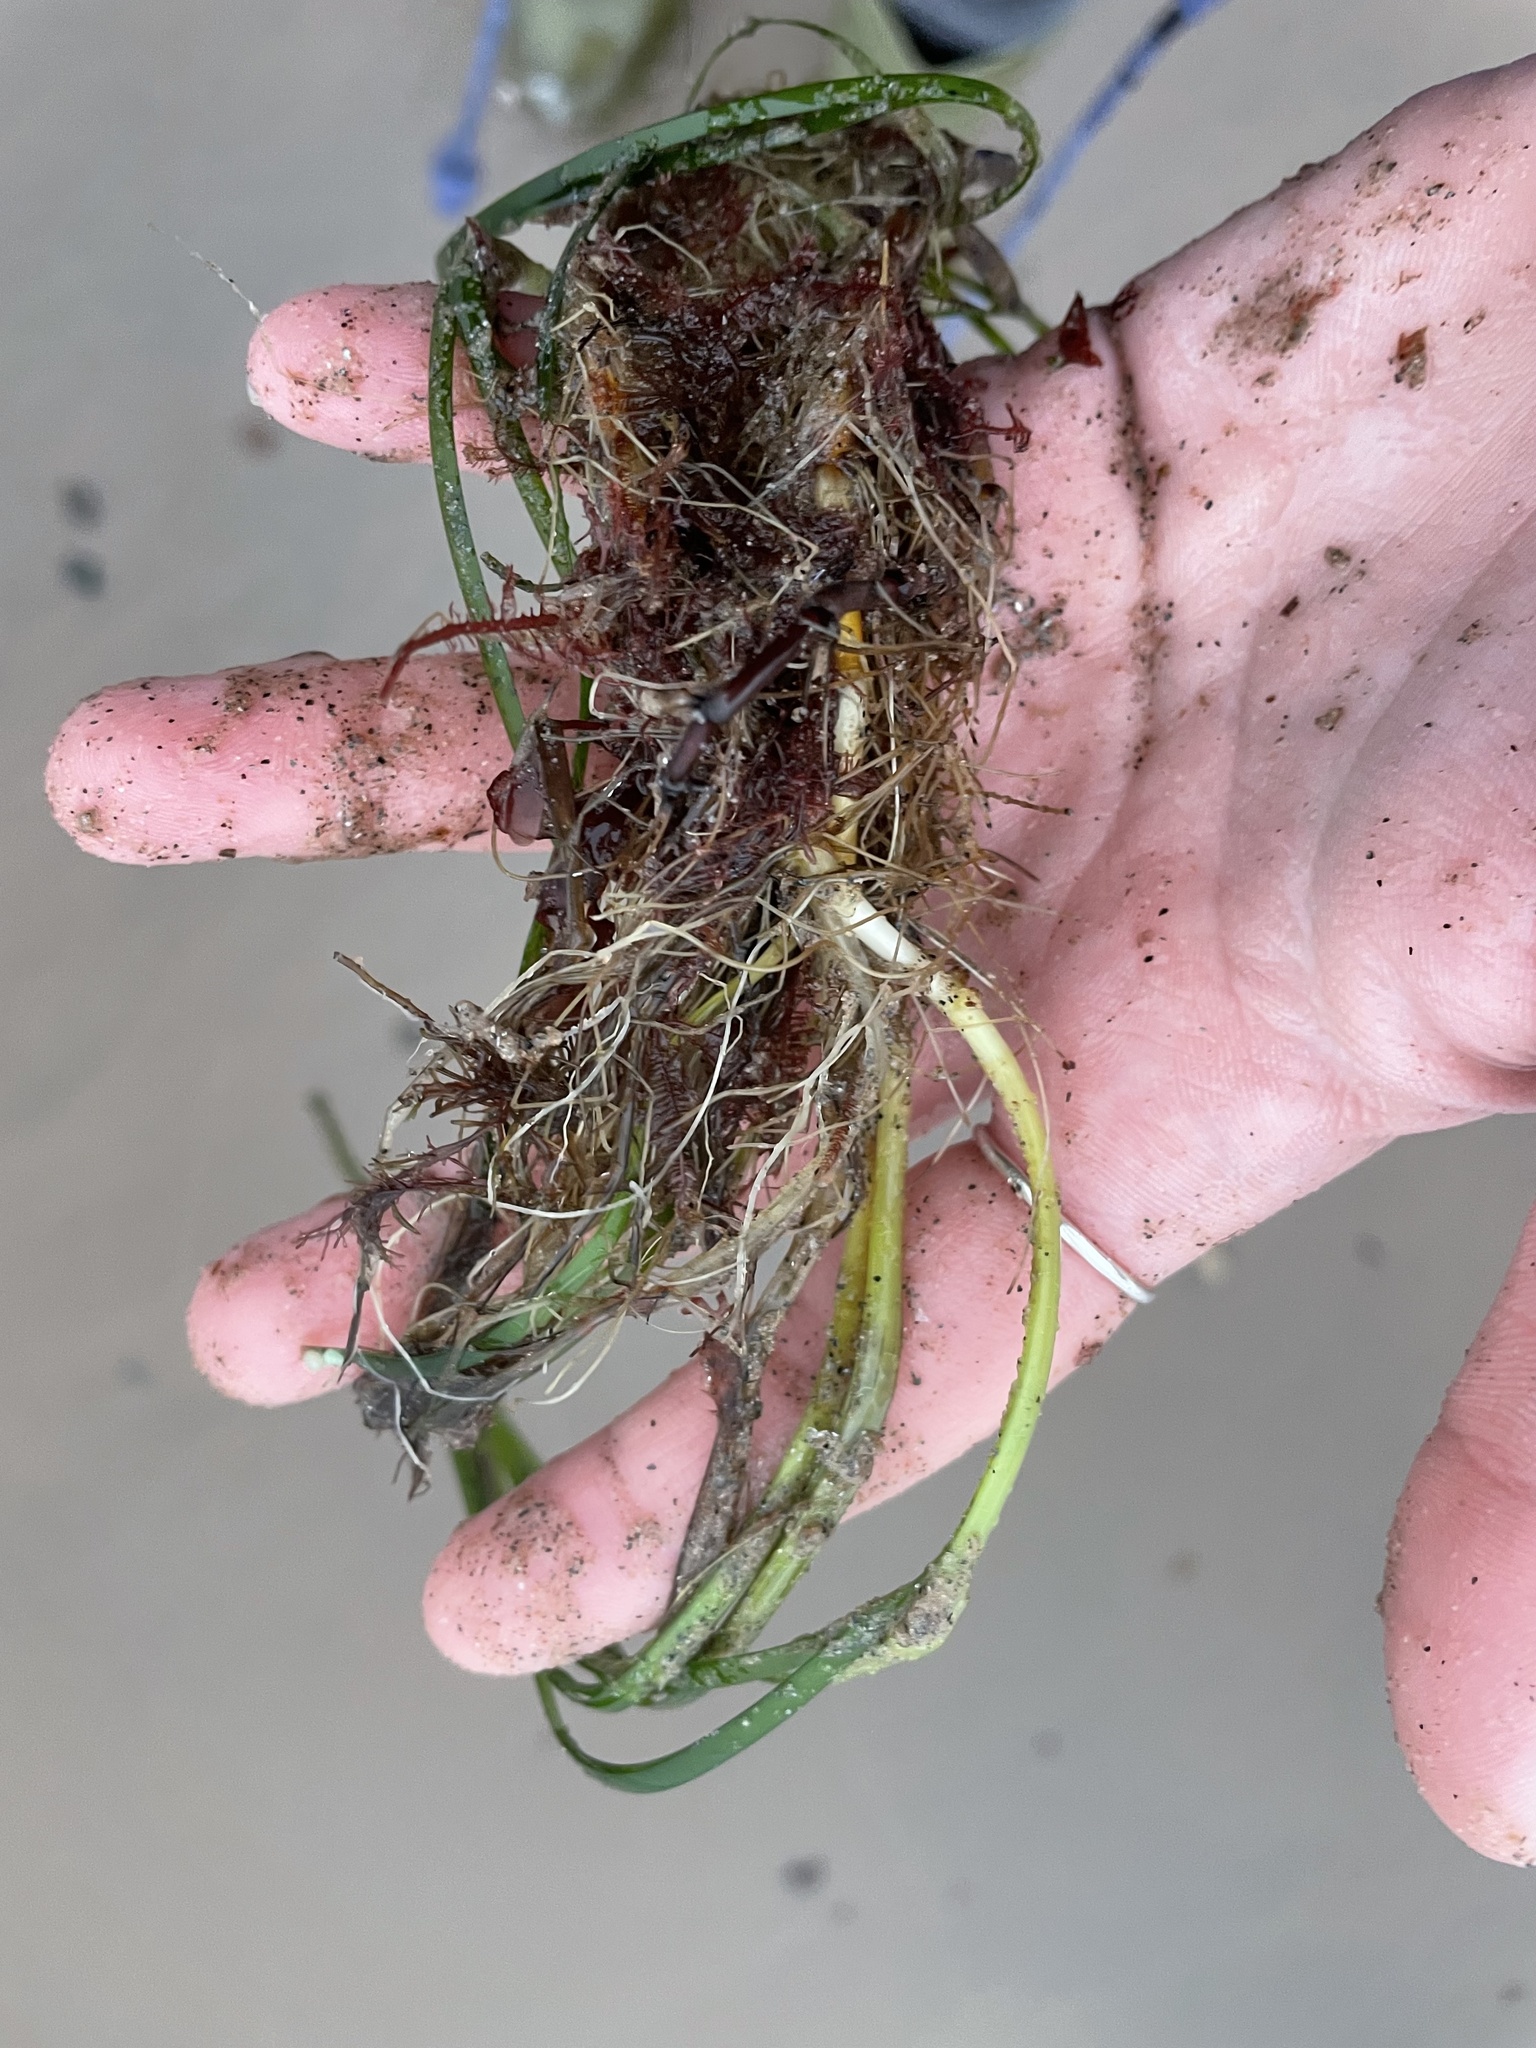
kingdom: Plantae
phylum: Tracheophyta
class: Liliopsida
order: Alismatales
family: Zosteraceae
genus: Zostera
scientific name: Zostera marina
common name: Eelgrass
